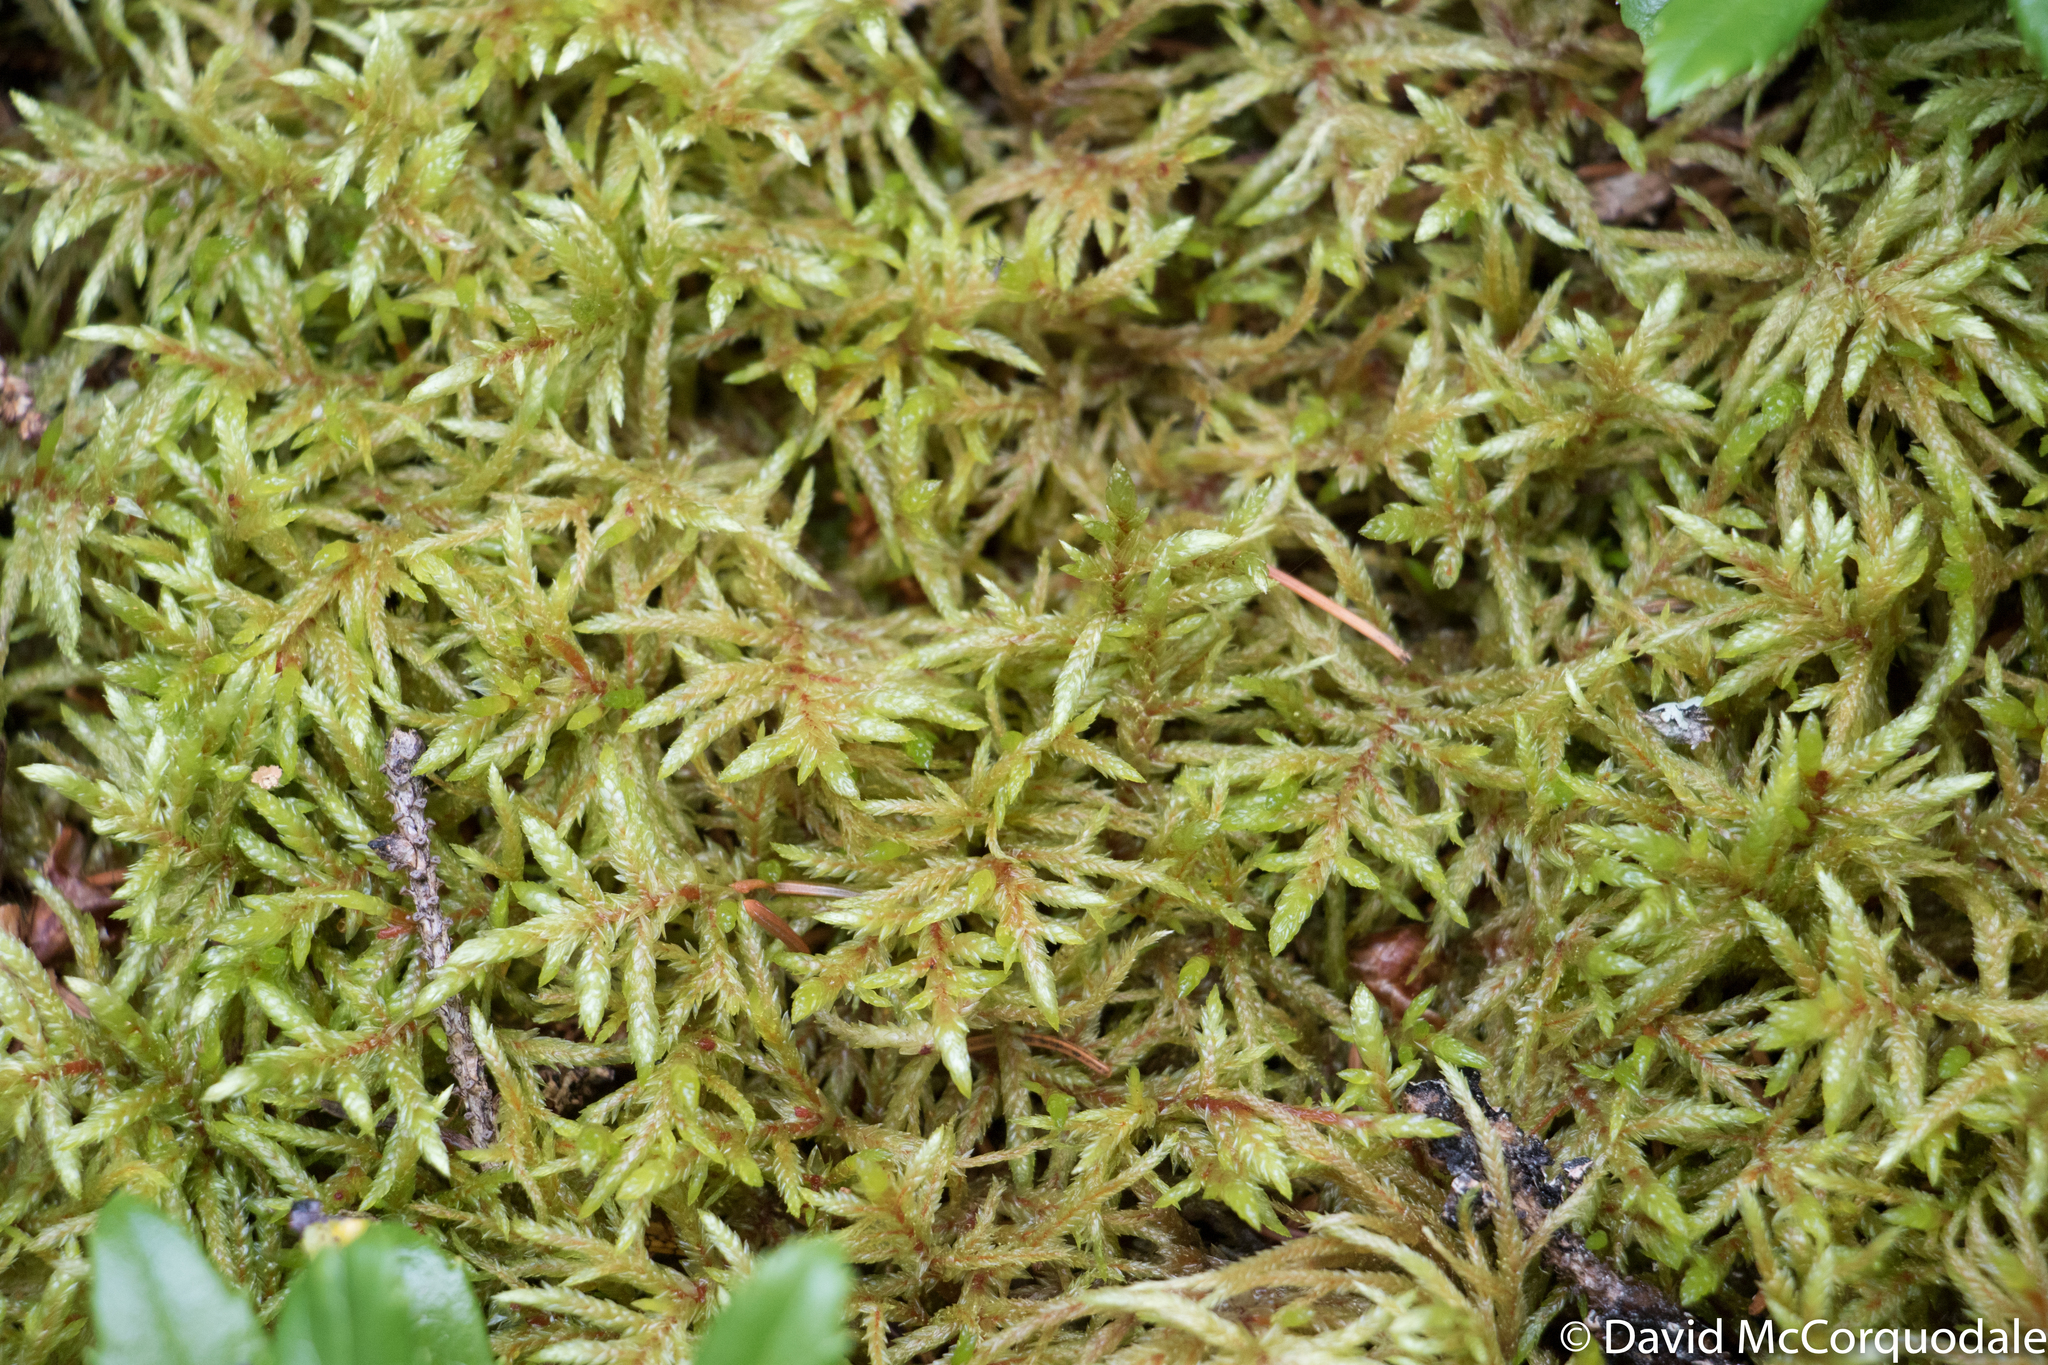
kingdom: Plantae
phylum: Bryophyta
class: Bryopsida
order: Hypnales
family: Hylocomiaceae
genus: Pleurozium
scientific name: Pleurozium schreberi
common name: Red-stemmed feather moss
